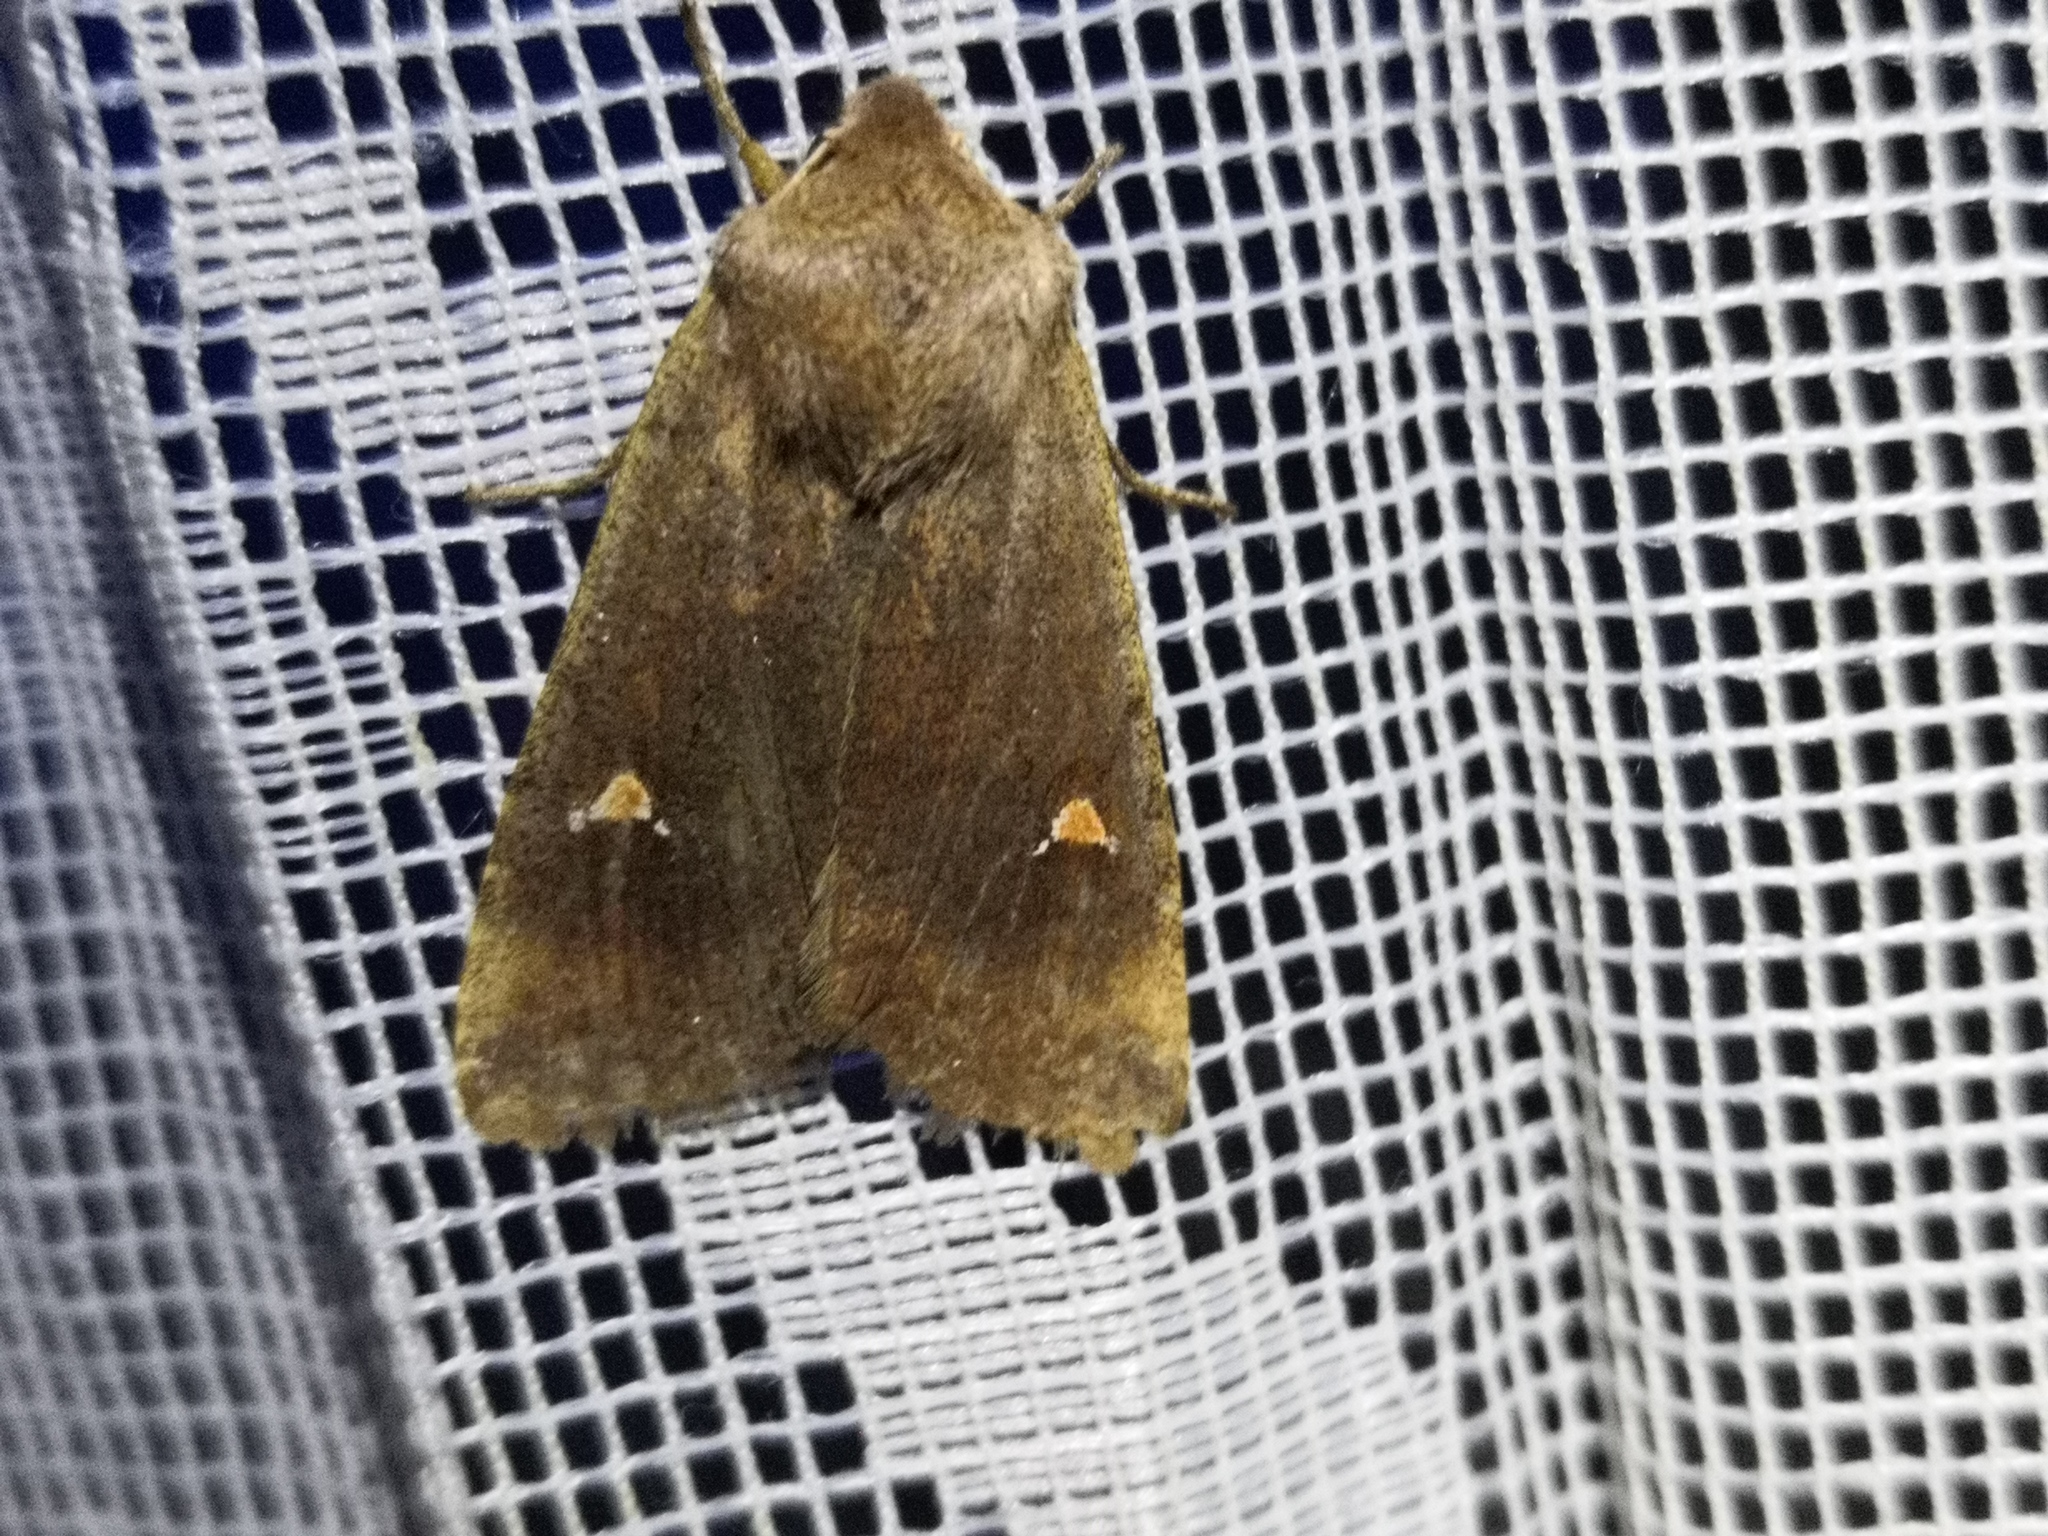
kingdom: Animalia
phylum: Arthropoda
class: Insecta
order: Lepidoptera
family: Noctuidae
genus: Eupsilia
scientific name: Eupsilia transversa
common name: Satellite
